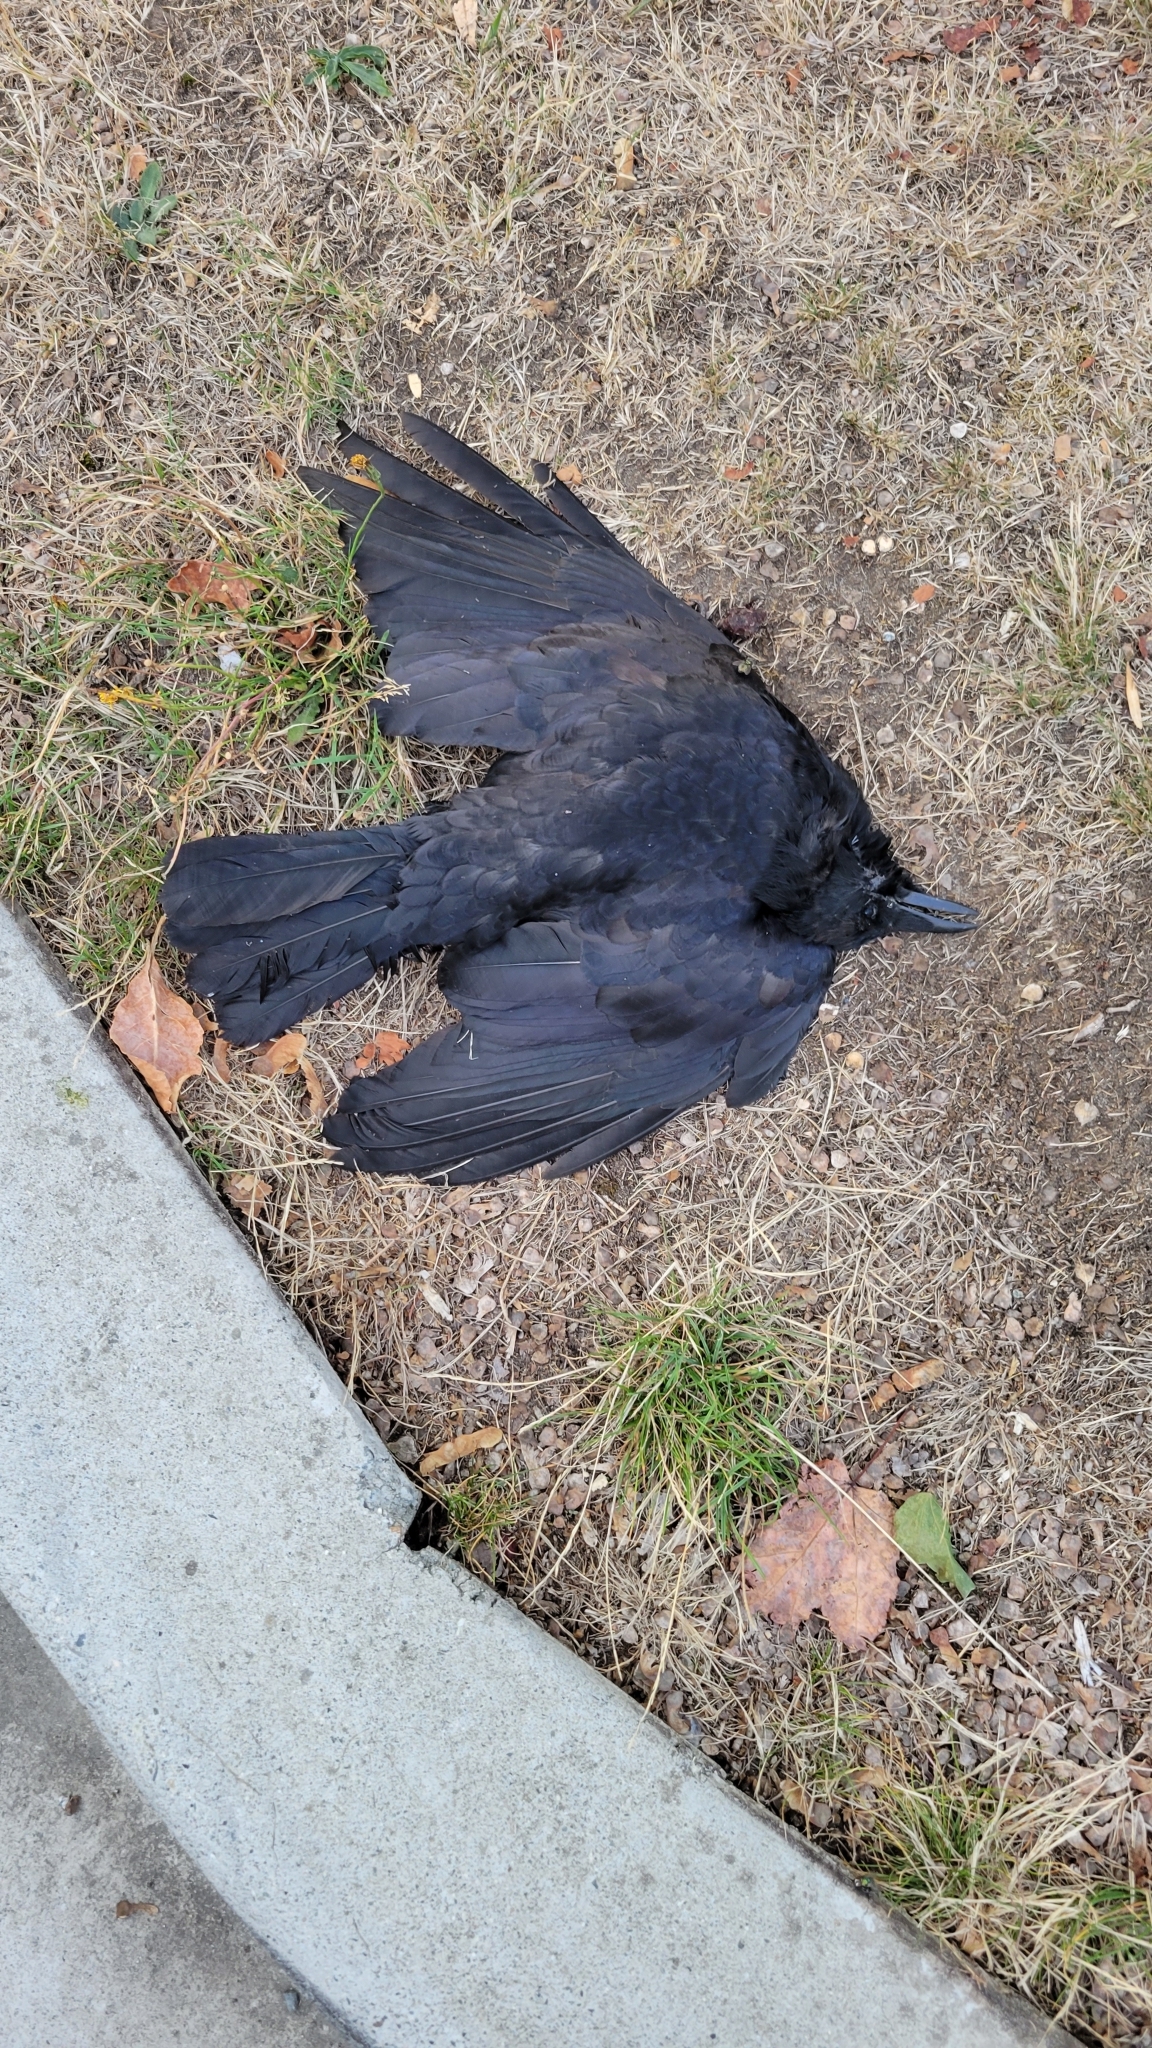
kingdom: Animalia
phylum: Chordata
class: Aves
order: Passeriformes
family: Corvidae
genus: Corvus
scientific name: Corvus brachyrhynchos
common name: American crow
